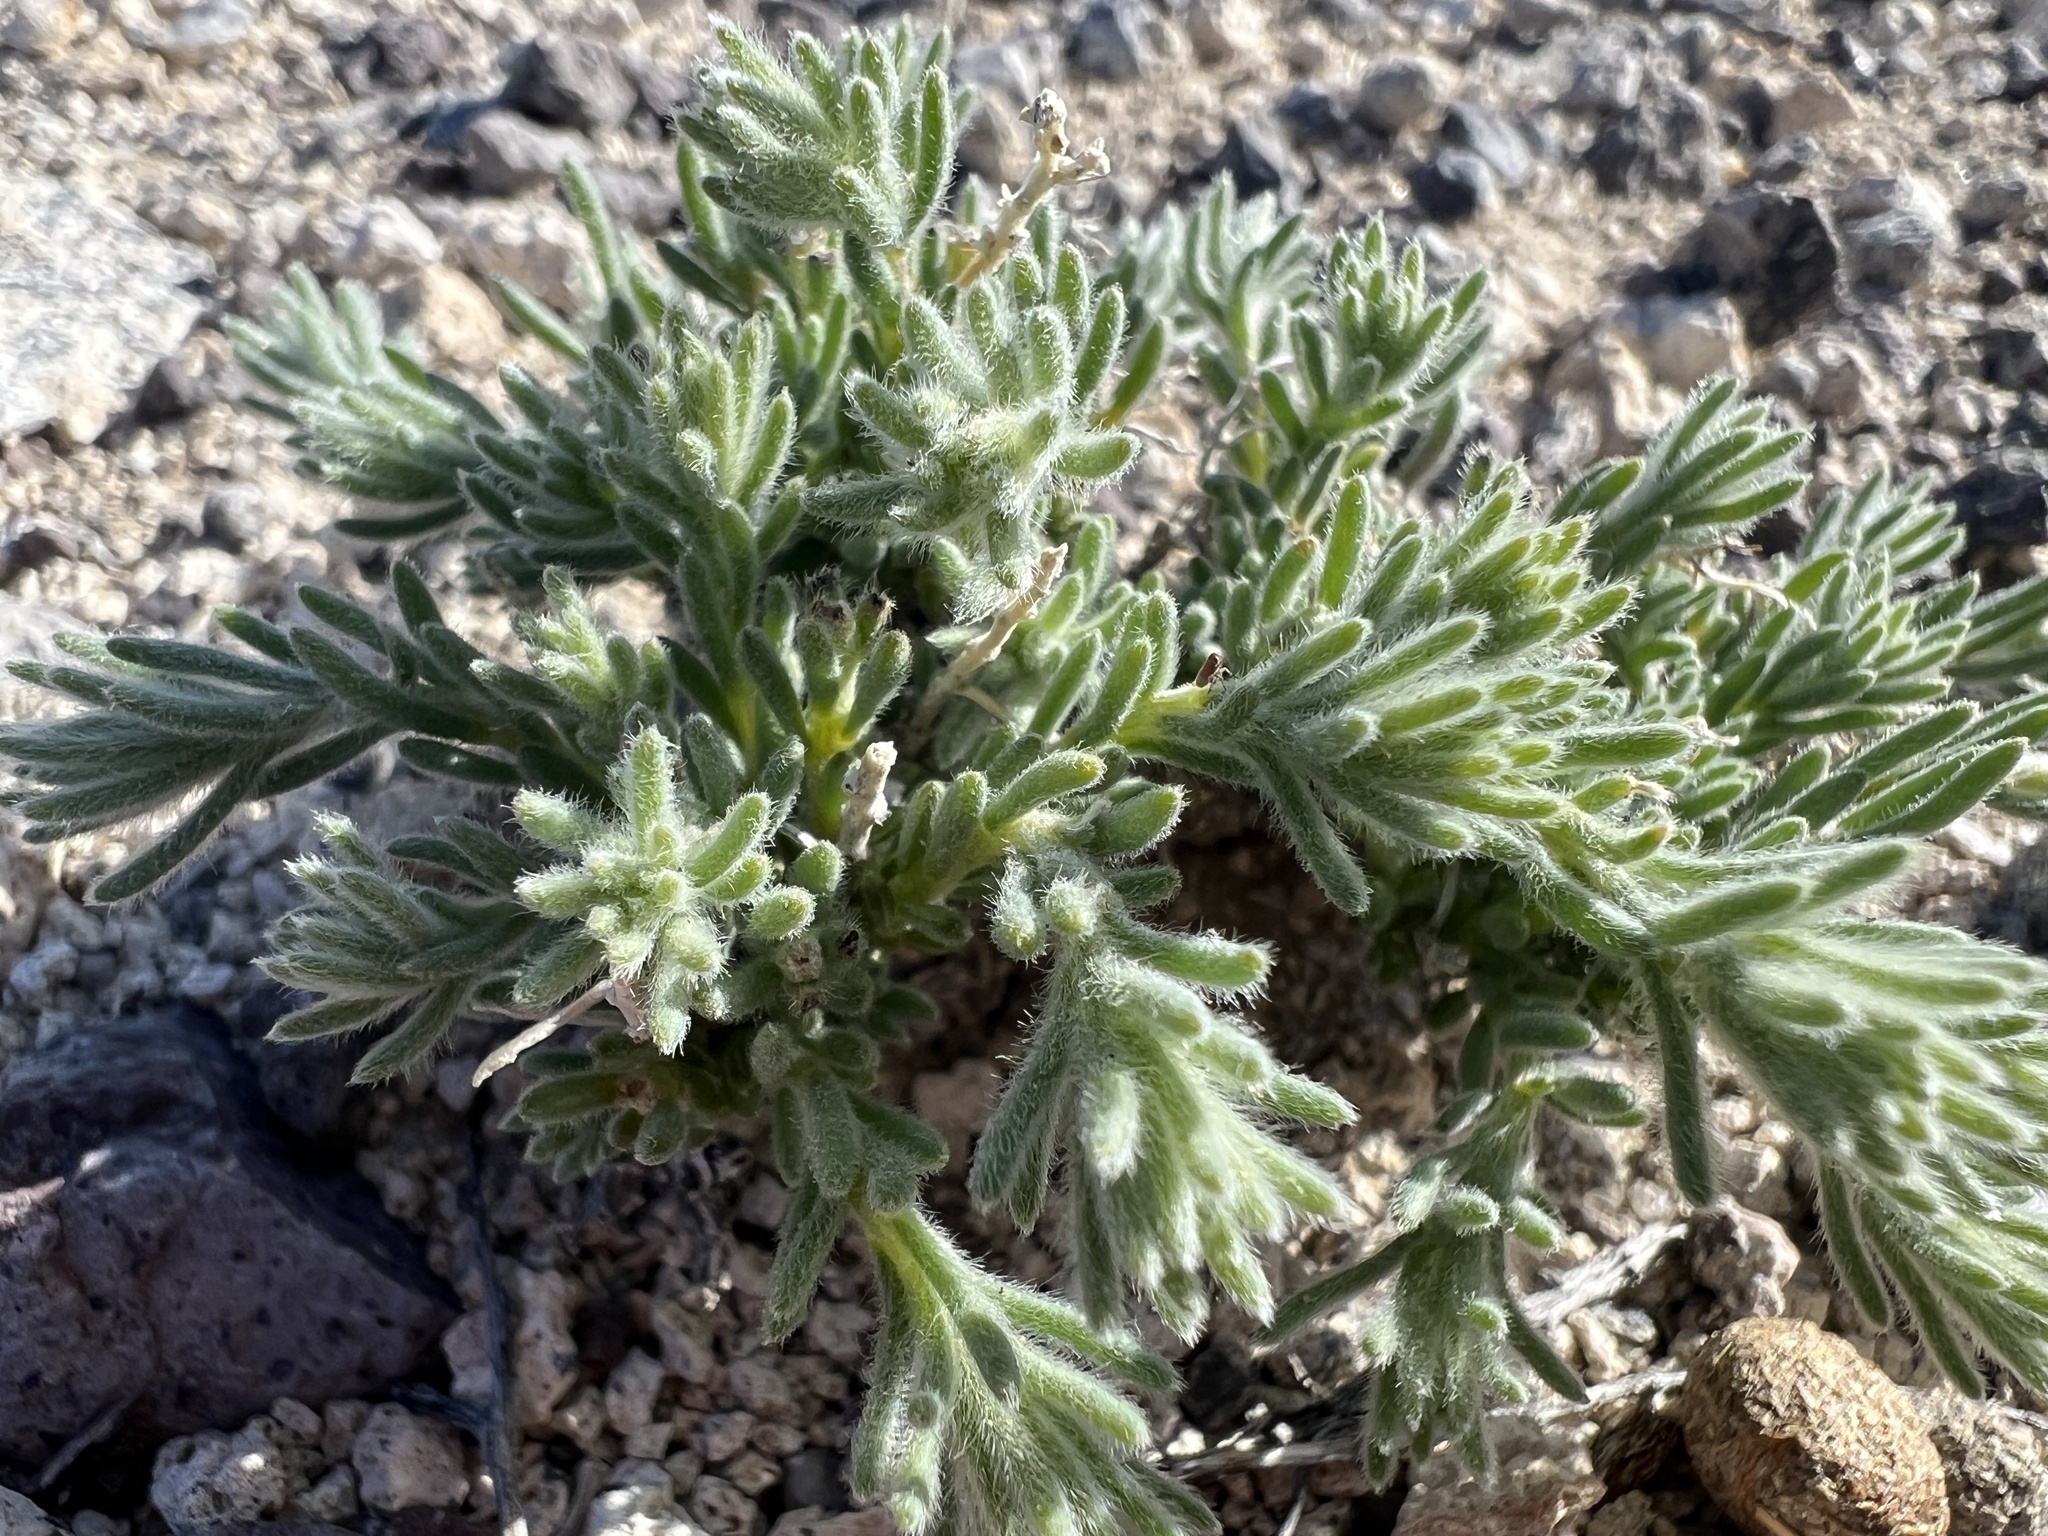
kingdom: Plantae
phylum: Tracheophyta
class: Magnoliopsida
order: Caryophyllales
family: Amaranthaceae
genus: Neokochia
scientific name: Neokochia americana
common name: Perennial summer-cypress
